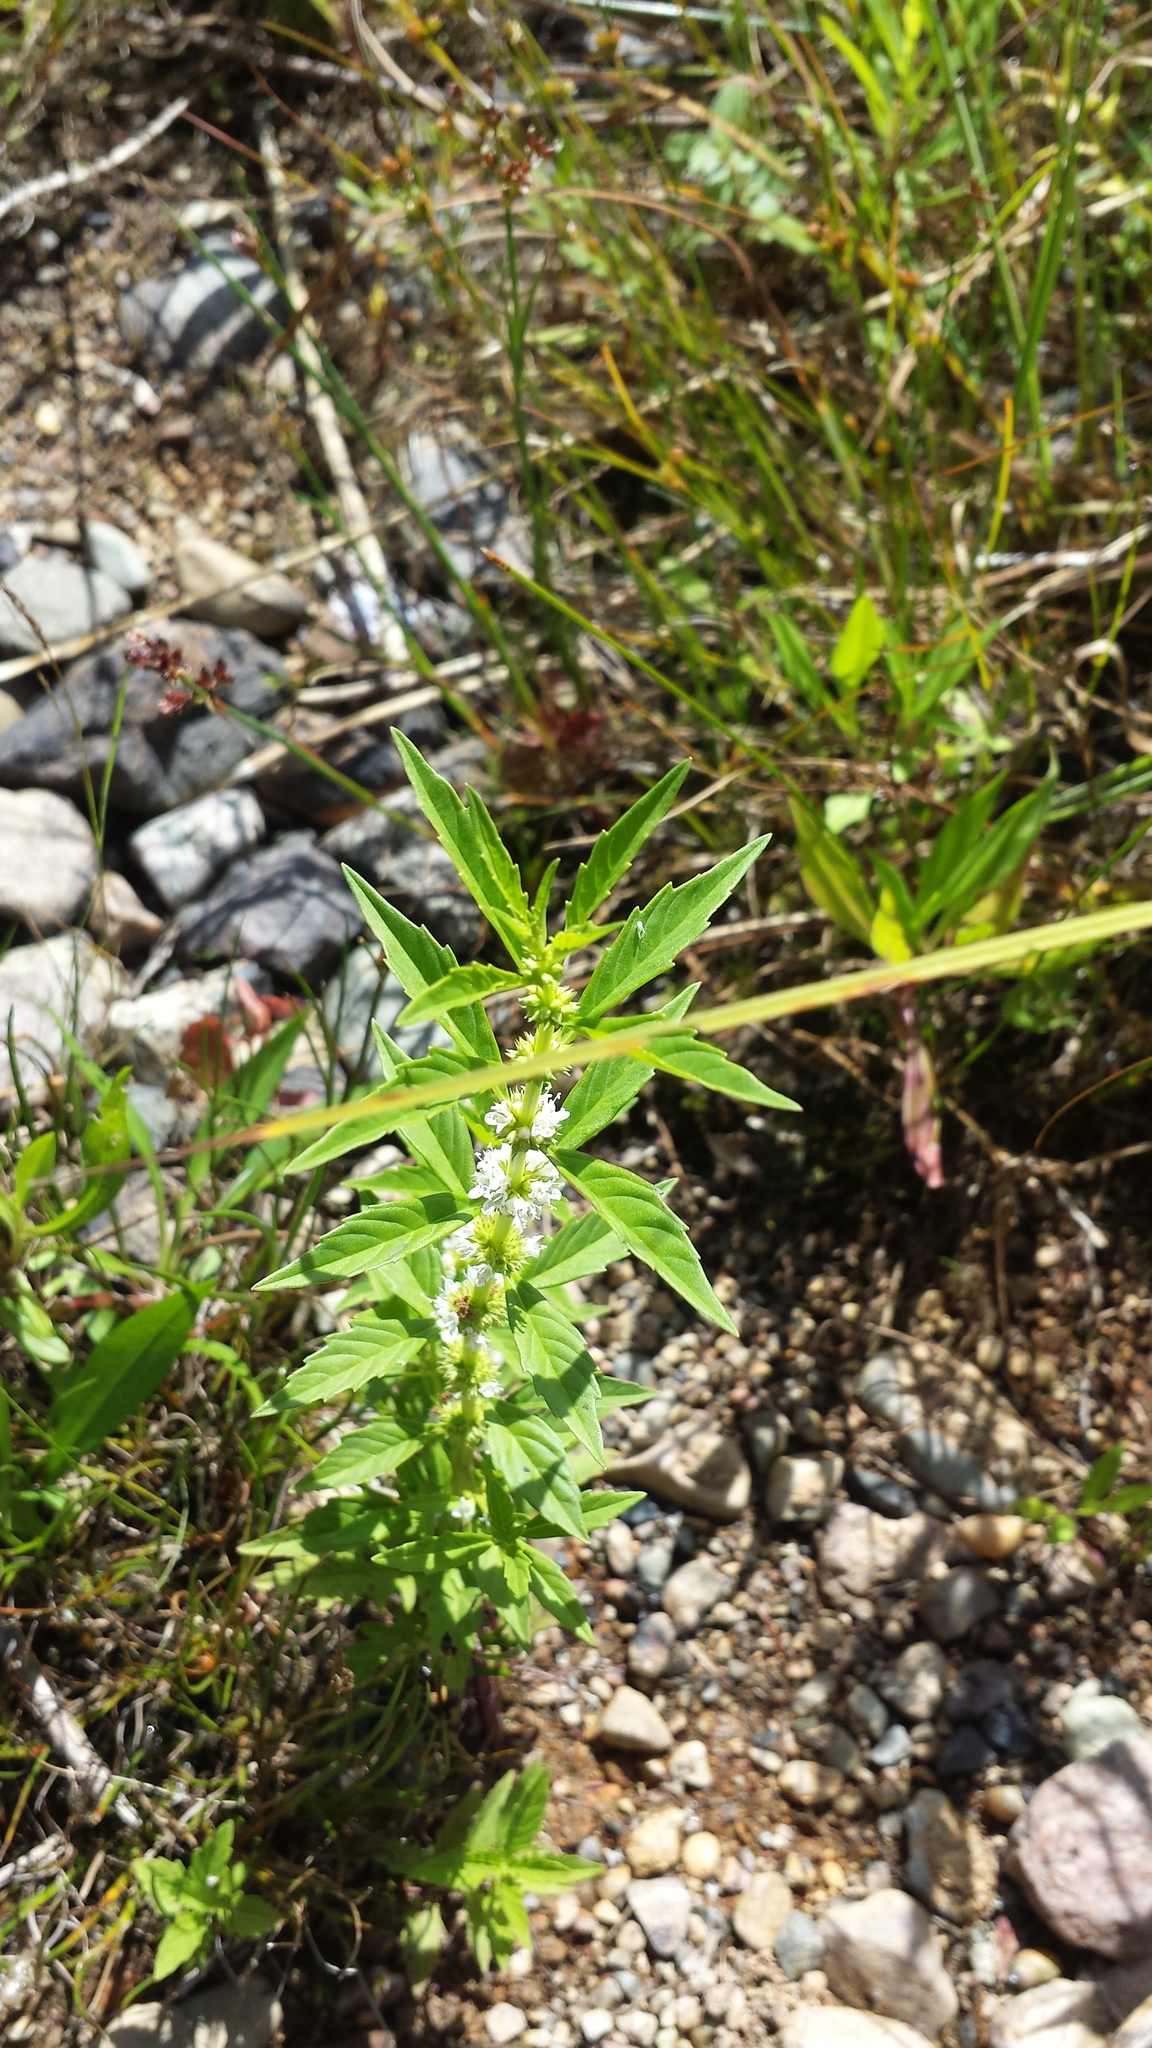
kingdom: Plantae
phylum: Tracheophyta
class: Magnoliopsida
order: Lamiales
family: Lamiaceae
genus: Lycopus
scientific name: Lycopus uniflorus
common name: Northern bugleweed
